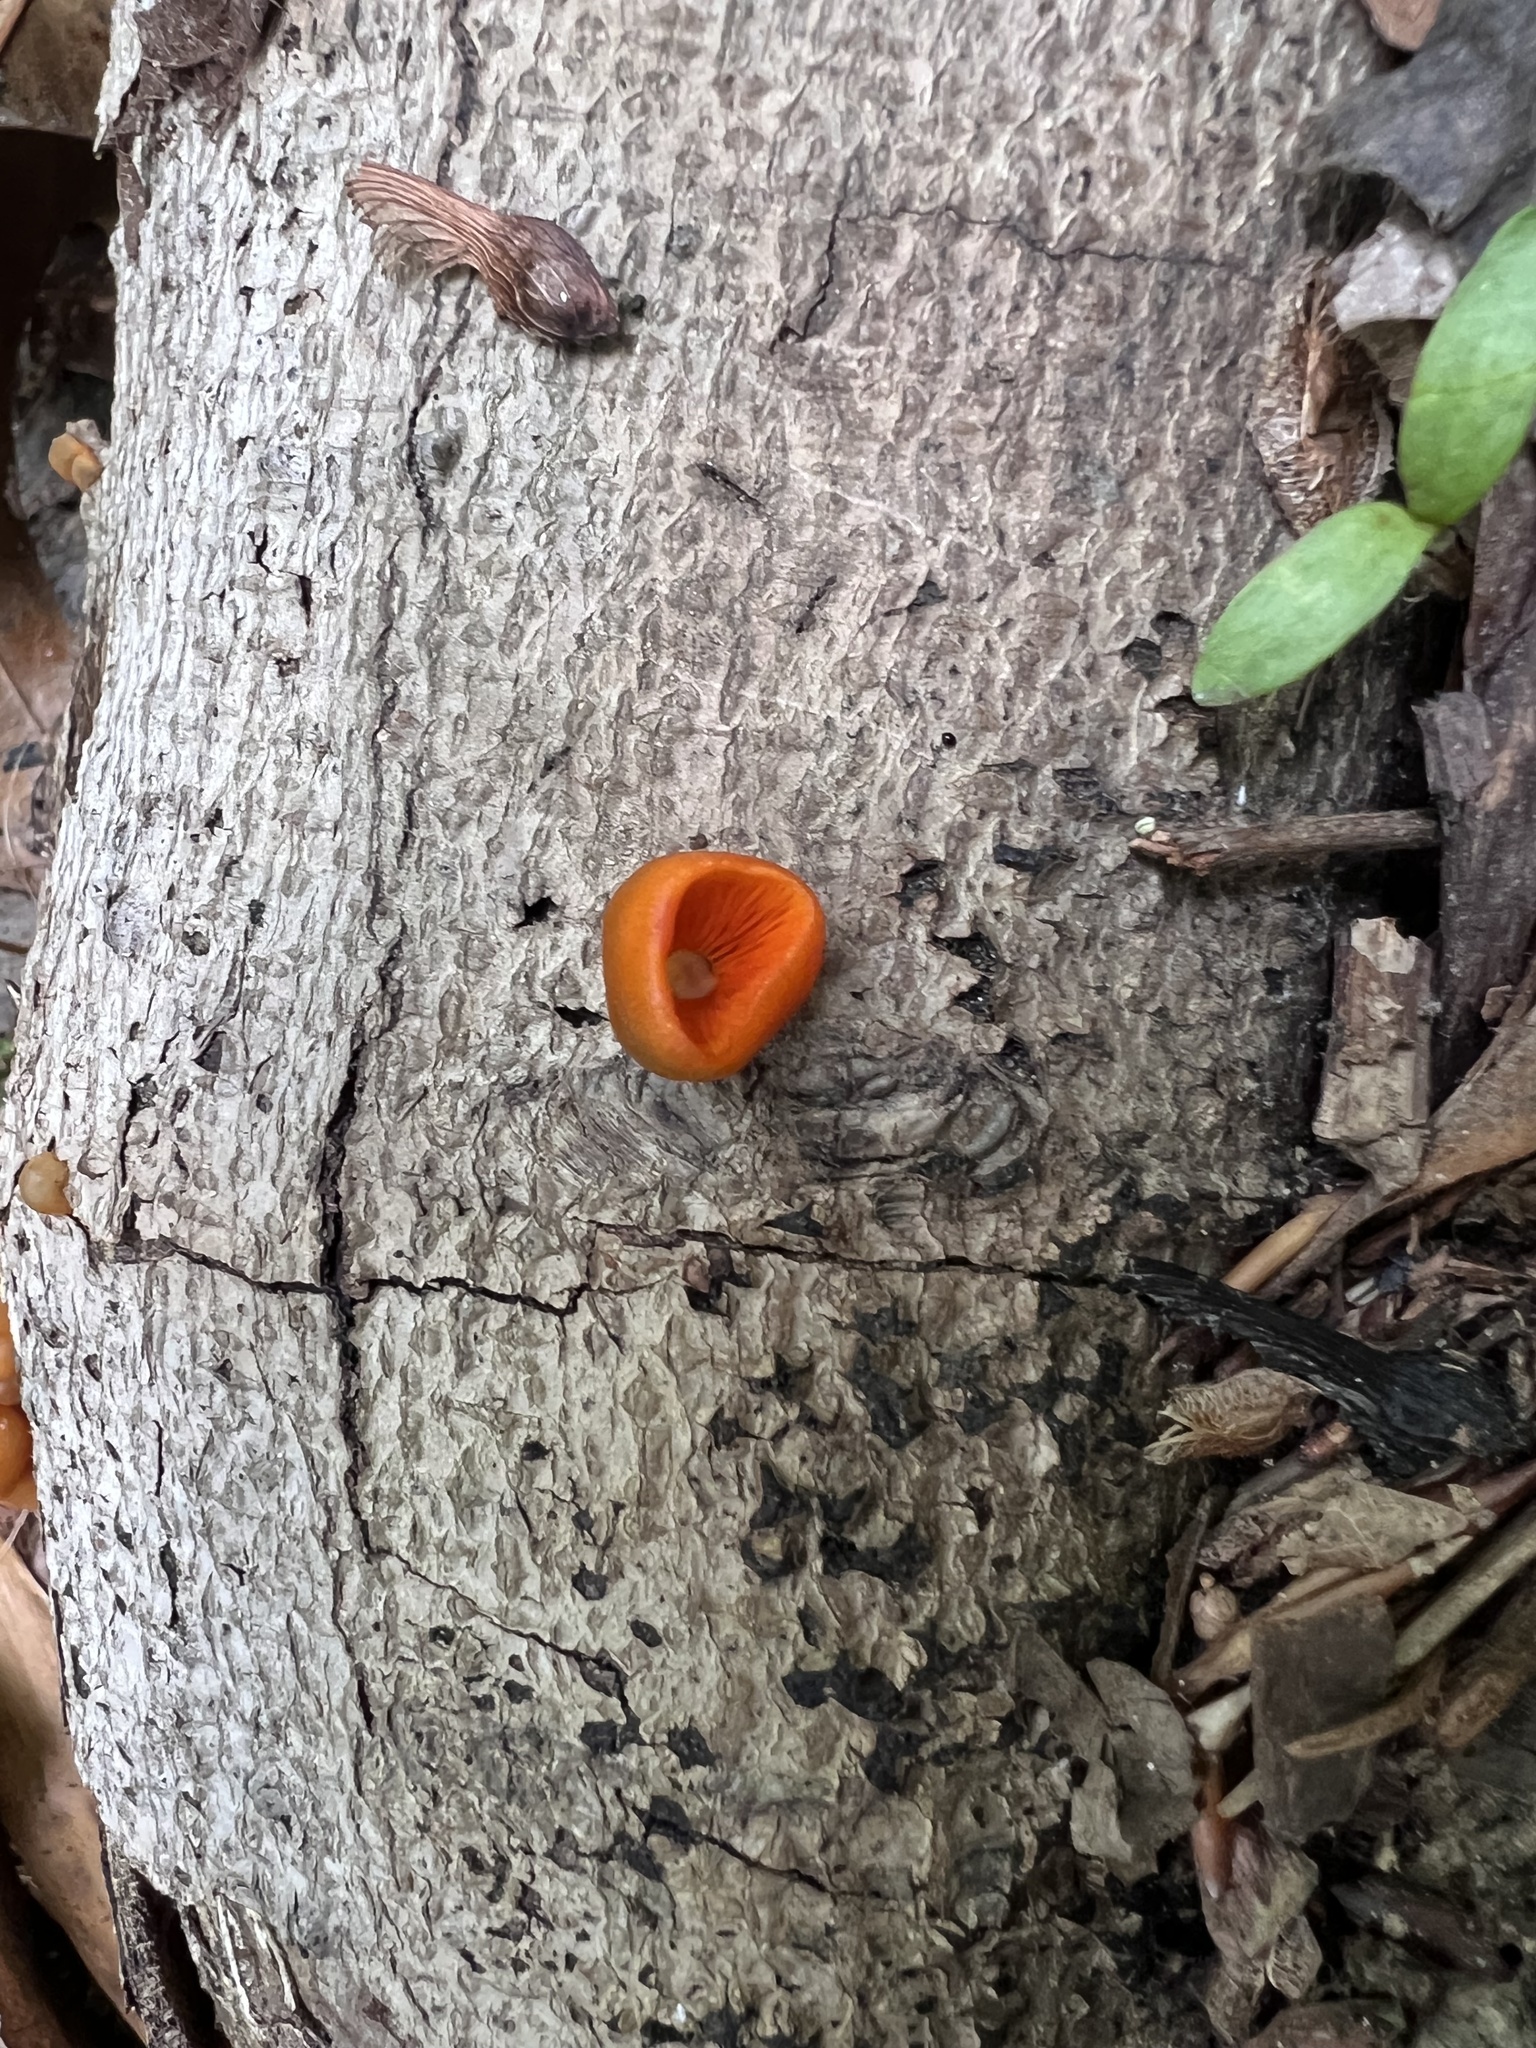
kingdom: Fungi
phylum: Basidiomycota
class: Agaricomycetes
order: Agaricales
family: Mycenaceae
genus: Mycena
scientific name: Mycena leaiana
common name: Orange mycena
